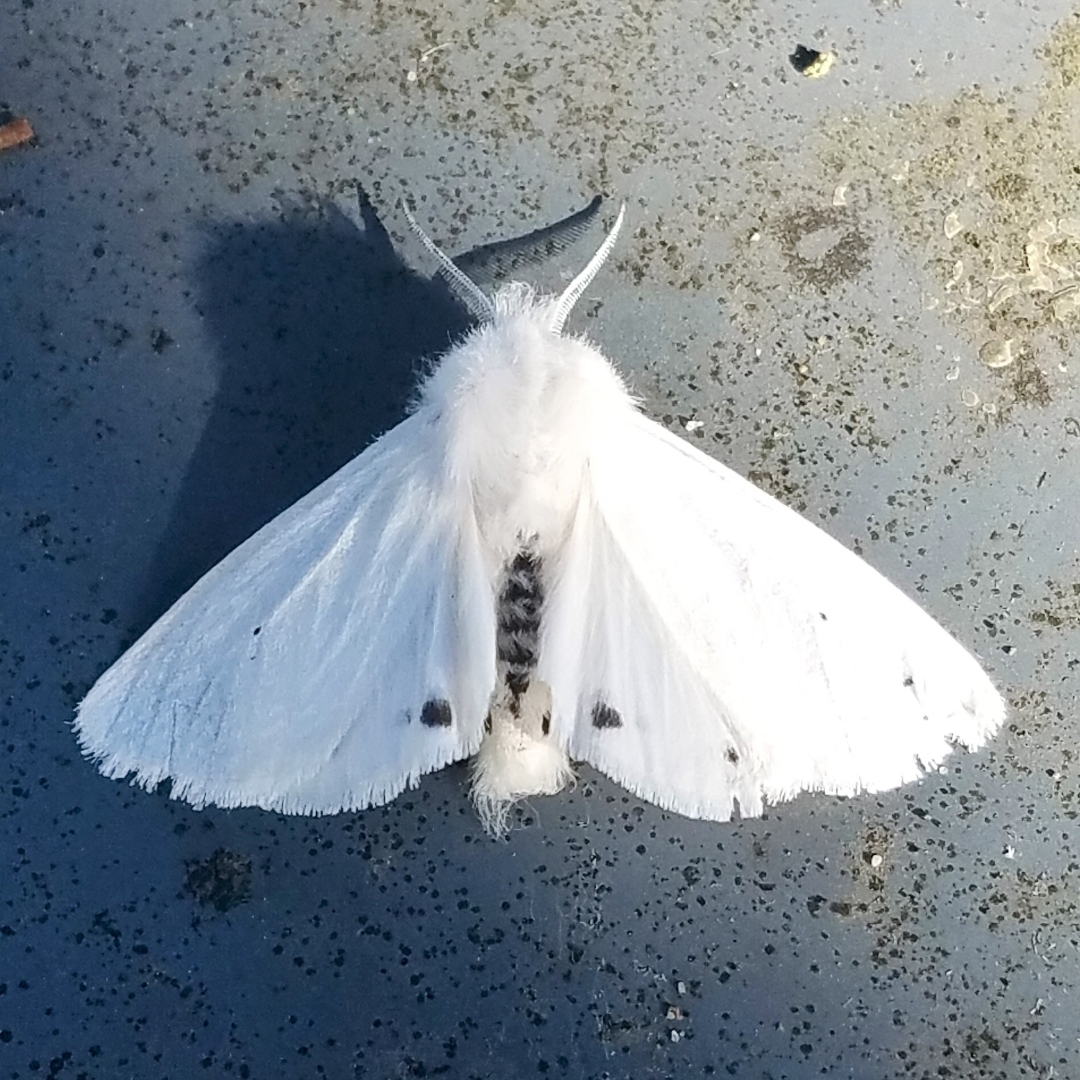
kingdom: Animalia
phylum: Arthropoda
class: Insecta
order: Lepidoptera
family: Erebidae
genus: Spilosoma
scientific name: Spilosoma virginica
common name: Virginia tiger moth
